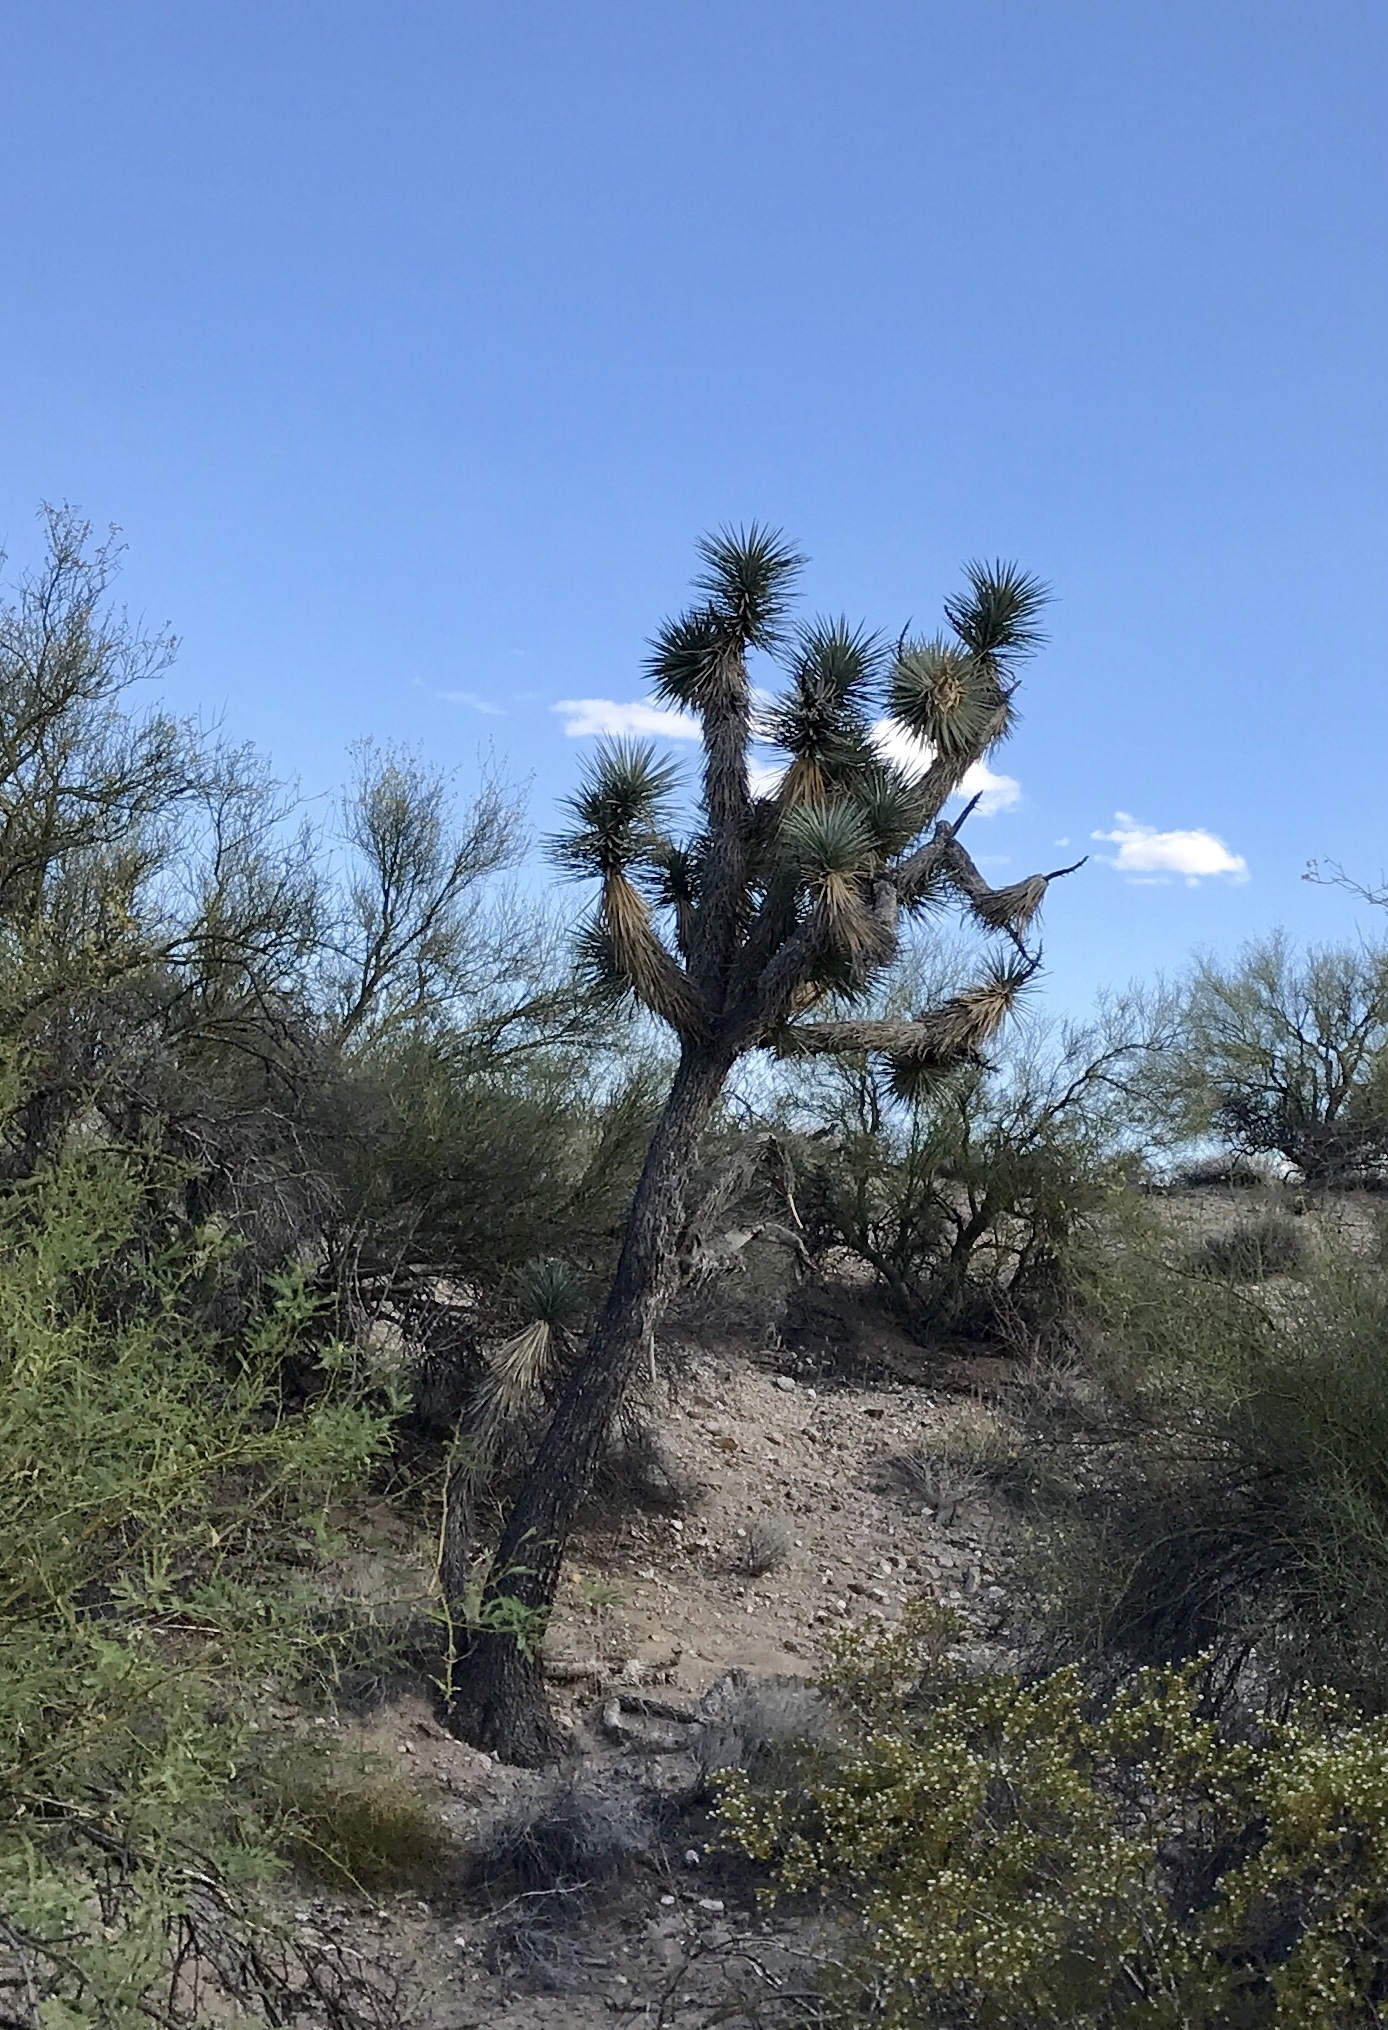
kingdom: Plantae
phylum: Tracheophyta
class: Liliopsida
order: Asparagales
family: Asparagaceae
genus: Yucca
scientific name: Yucca brevifolia
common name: Joshua tree
